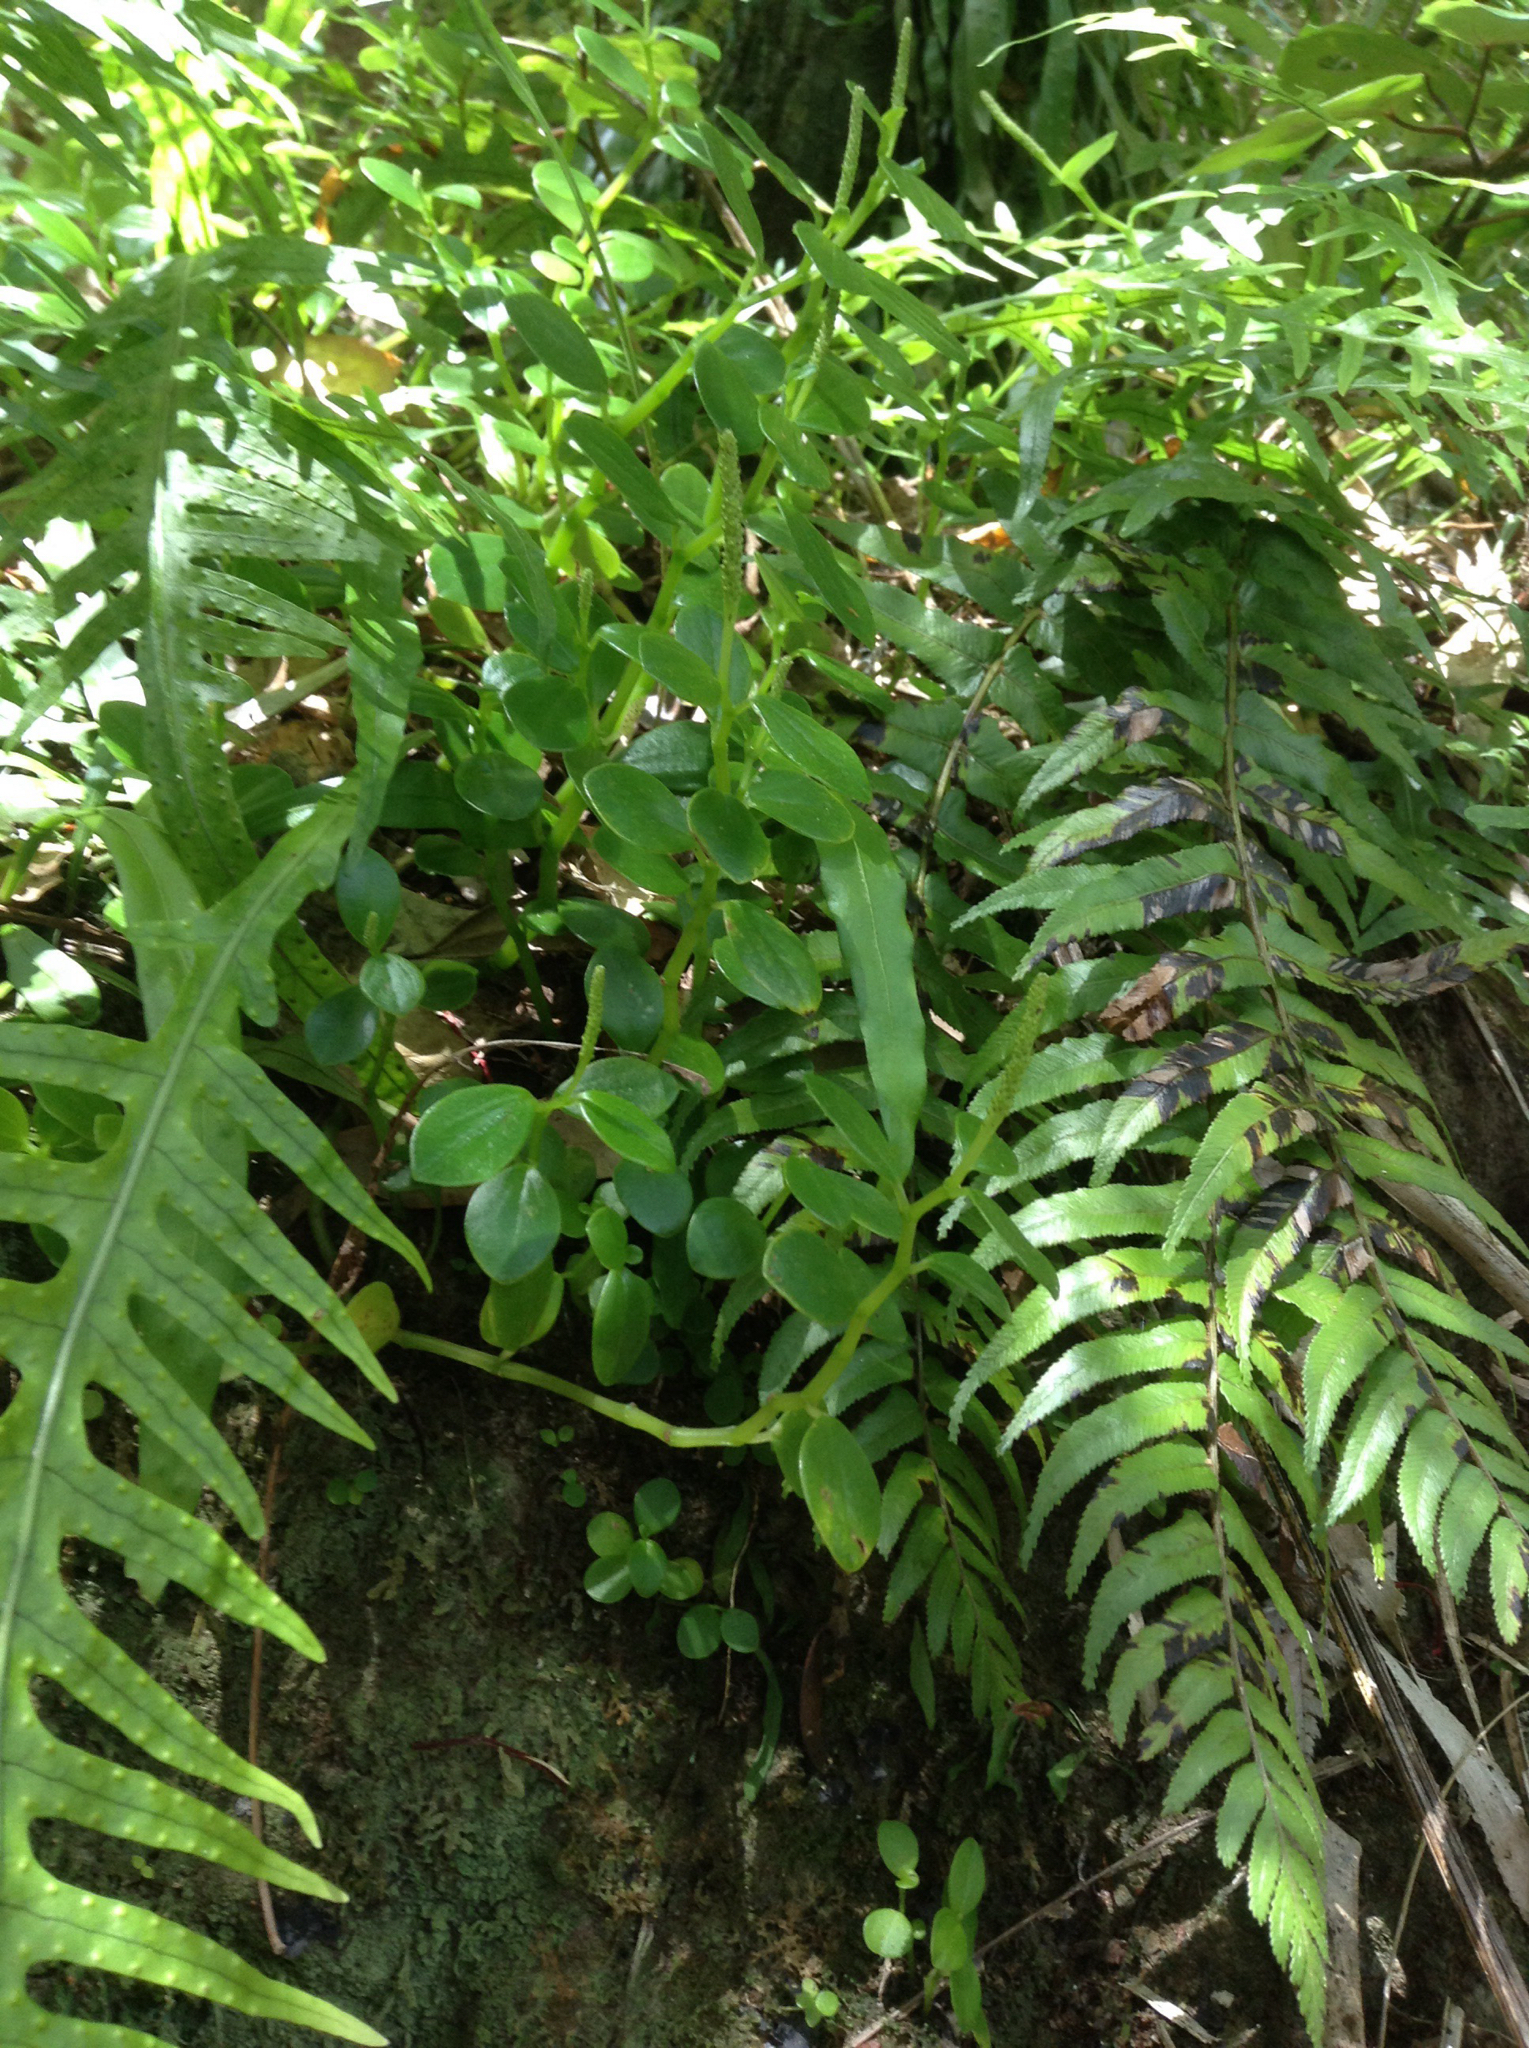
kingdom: Plantae
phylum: Tracheophyta
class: Magnoliopsida
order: Piperales
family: Piperaceae
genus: Peperomia
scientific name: Peperomia urvilleana
